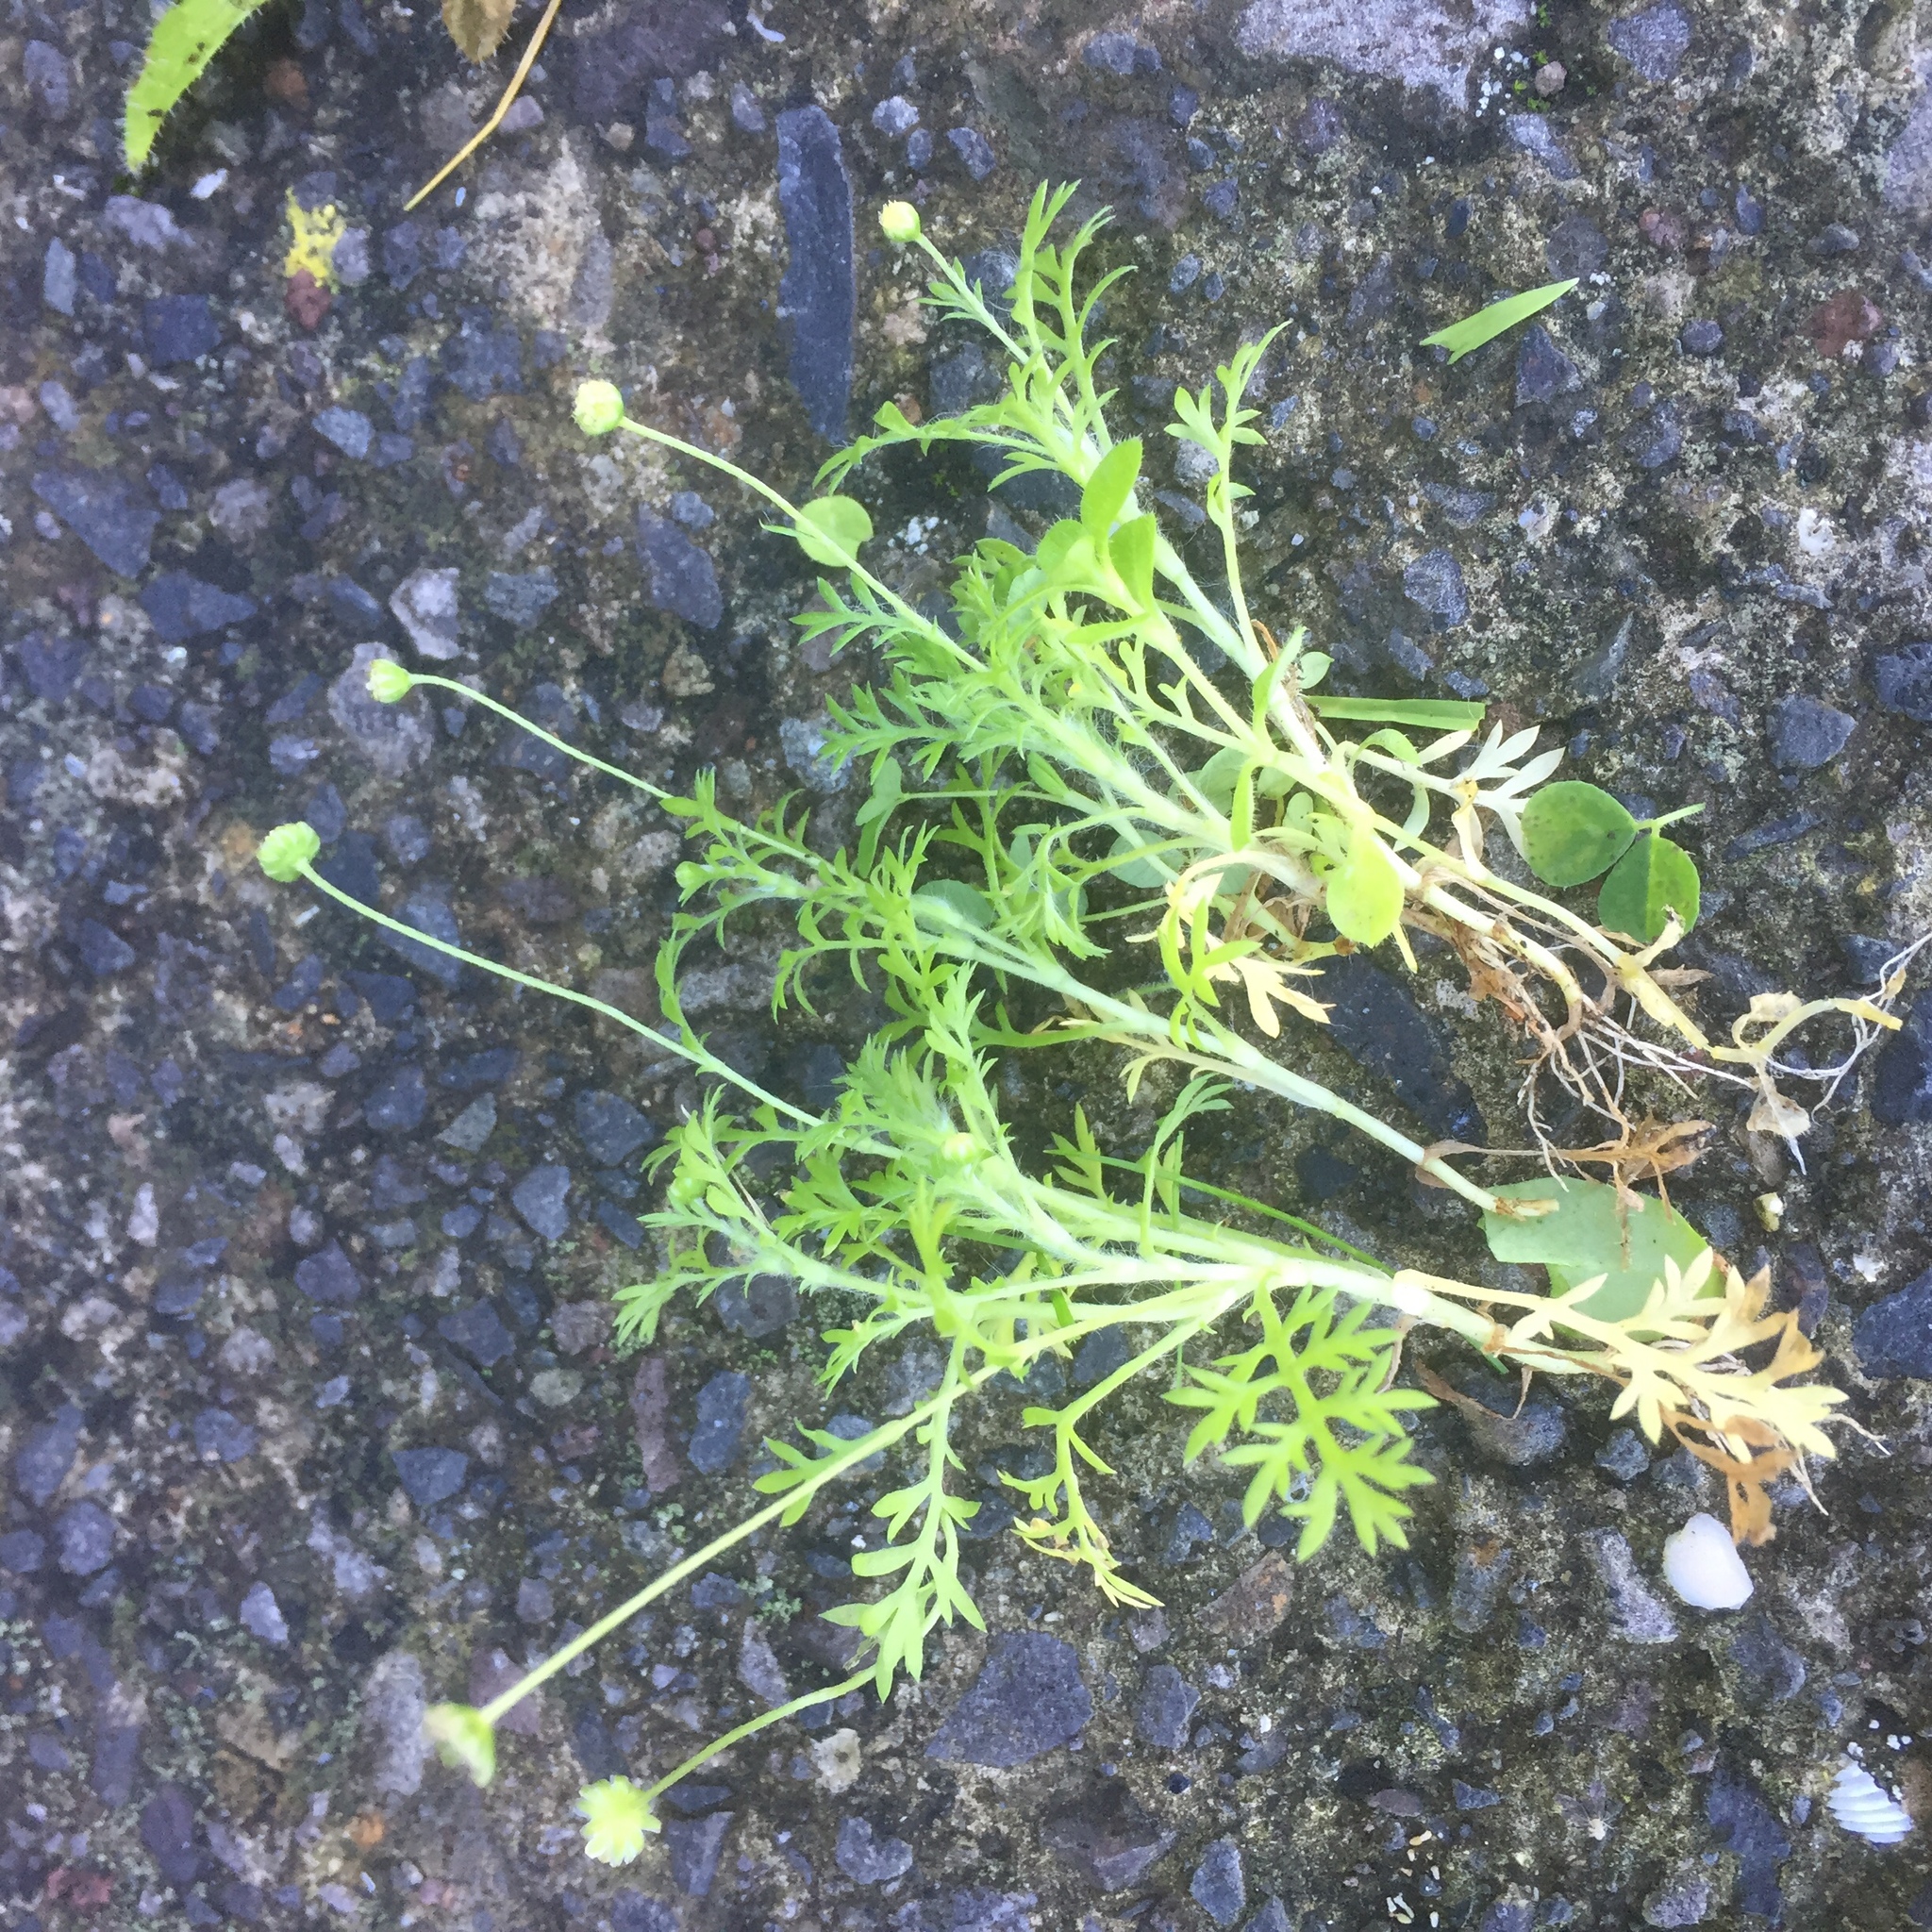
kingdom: Plantae
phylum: Tracheophyta
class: Magnoliopsida
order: Asterales
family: Asteraceae
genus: Cotula
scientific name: Cotula australis
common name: Australian waterbuttons
